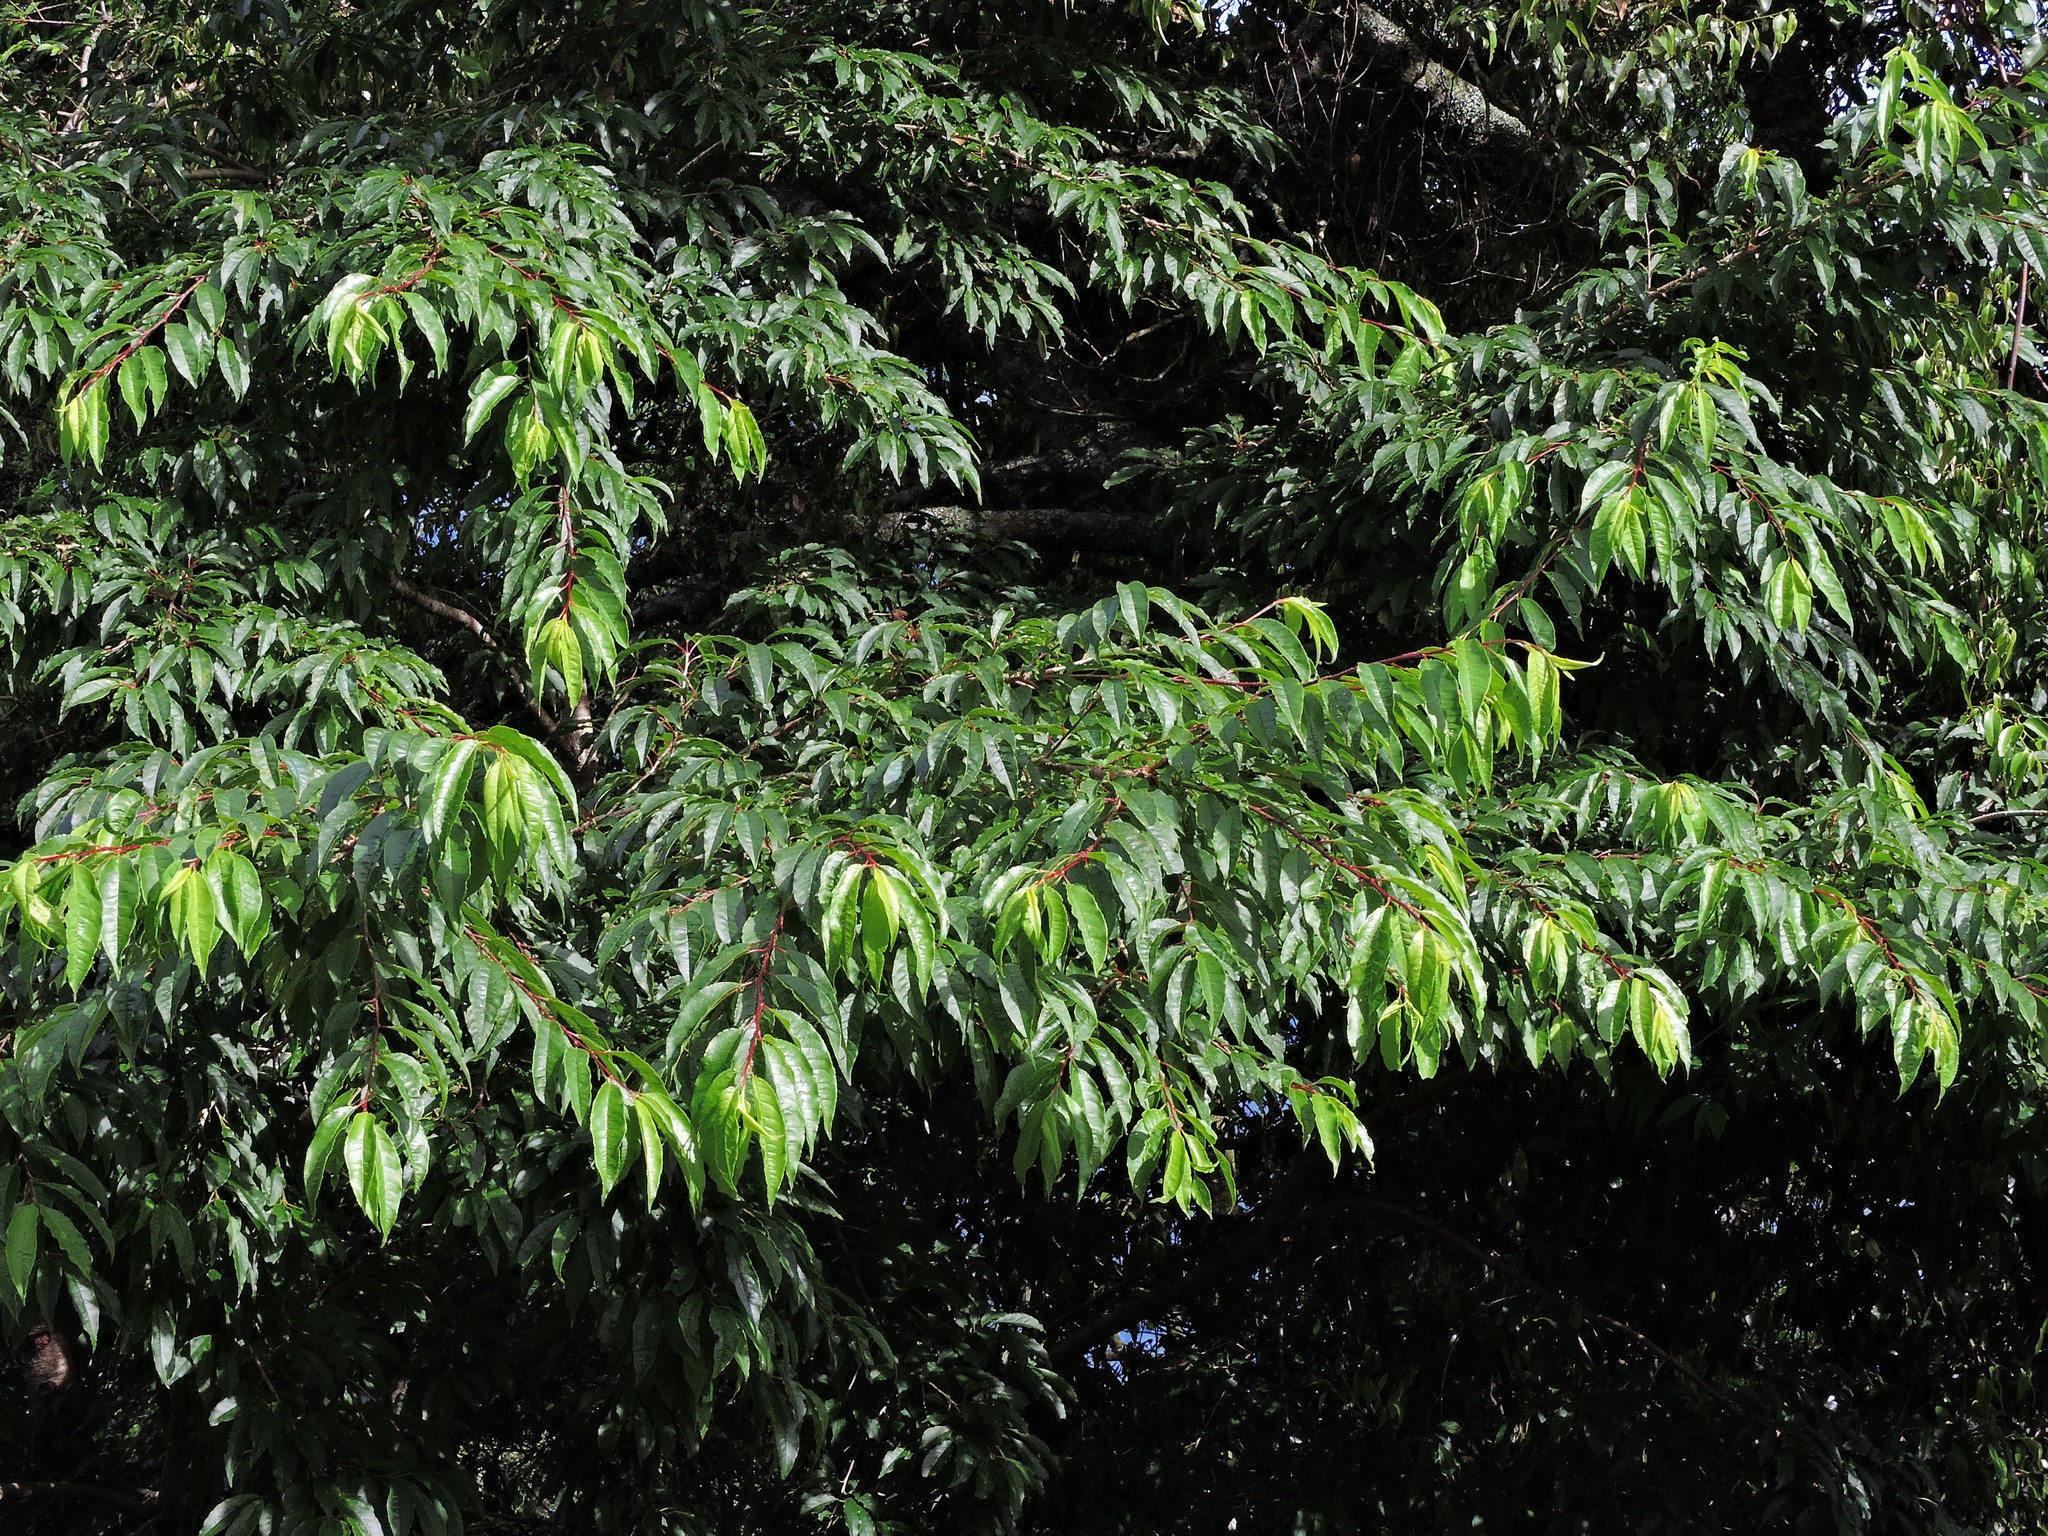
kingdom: Plantae
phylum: Tracheophyta
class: Magnoliopsida
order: Rosales
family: Rosaceae
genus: Prunus
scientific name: Prunus buergeriana
